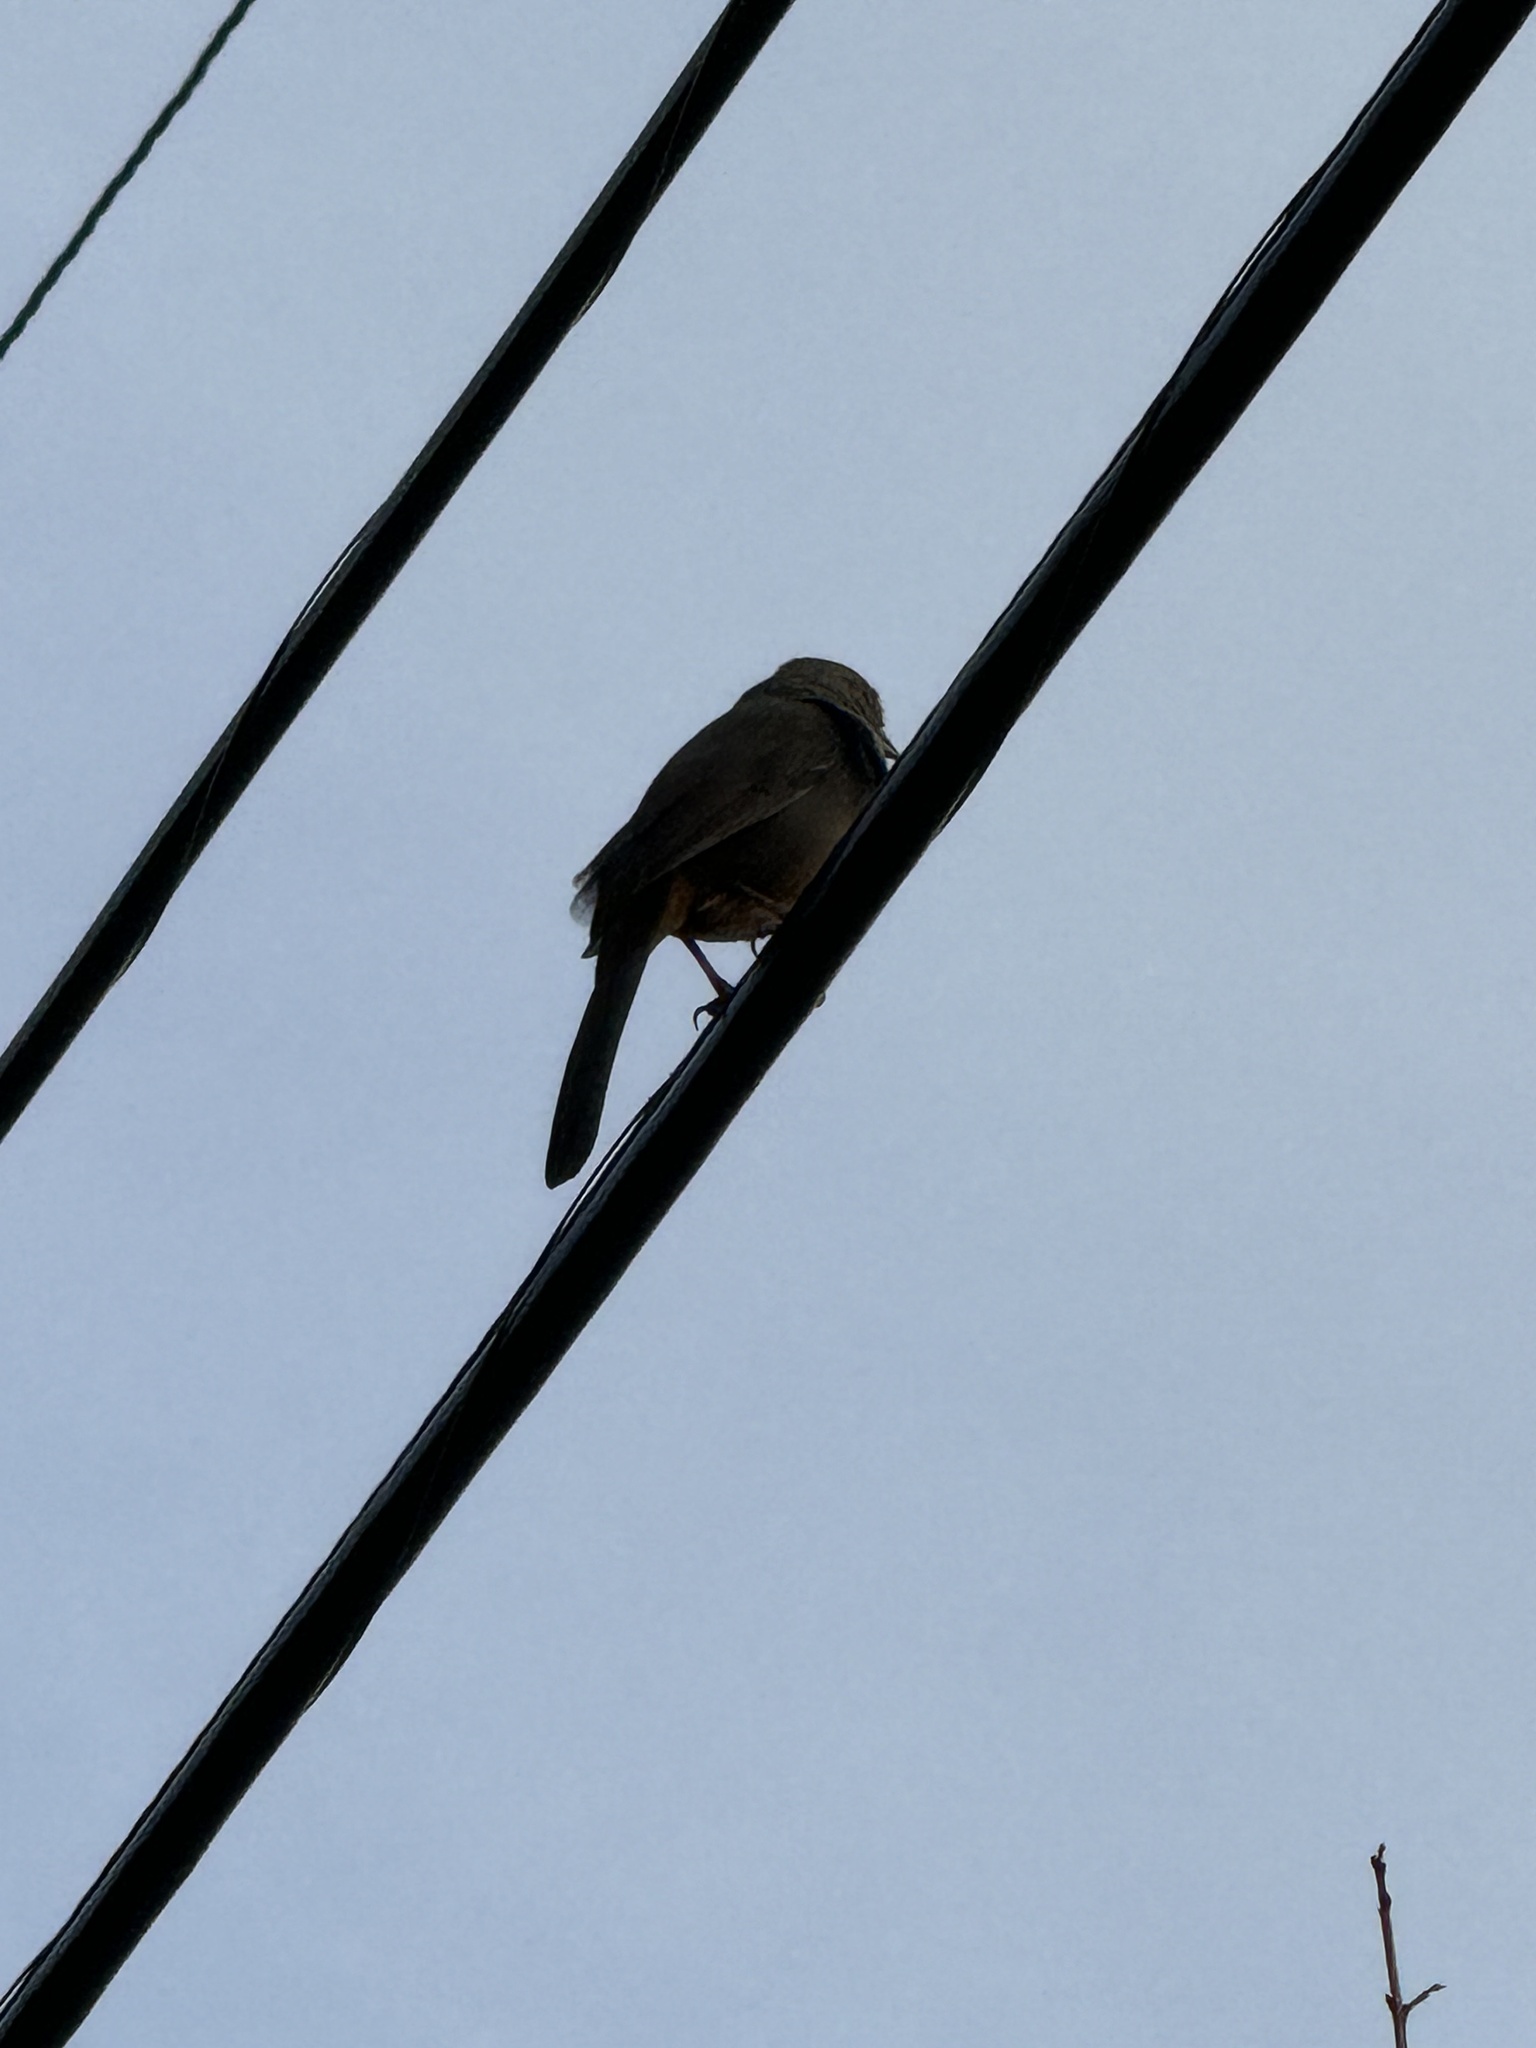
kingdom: Animalia
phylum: Chordata
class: Aves
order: Passeriformes
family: Corvidae
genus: Aphelocoma
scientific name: Aphelocoma californica
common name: California scrub-jay
